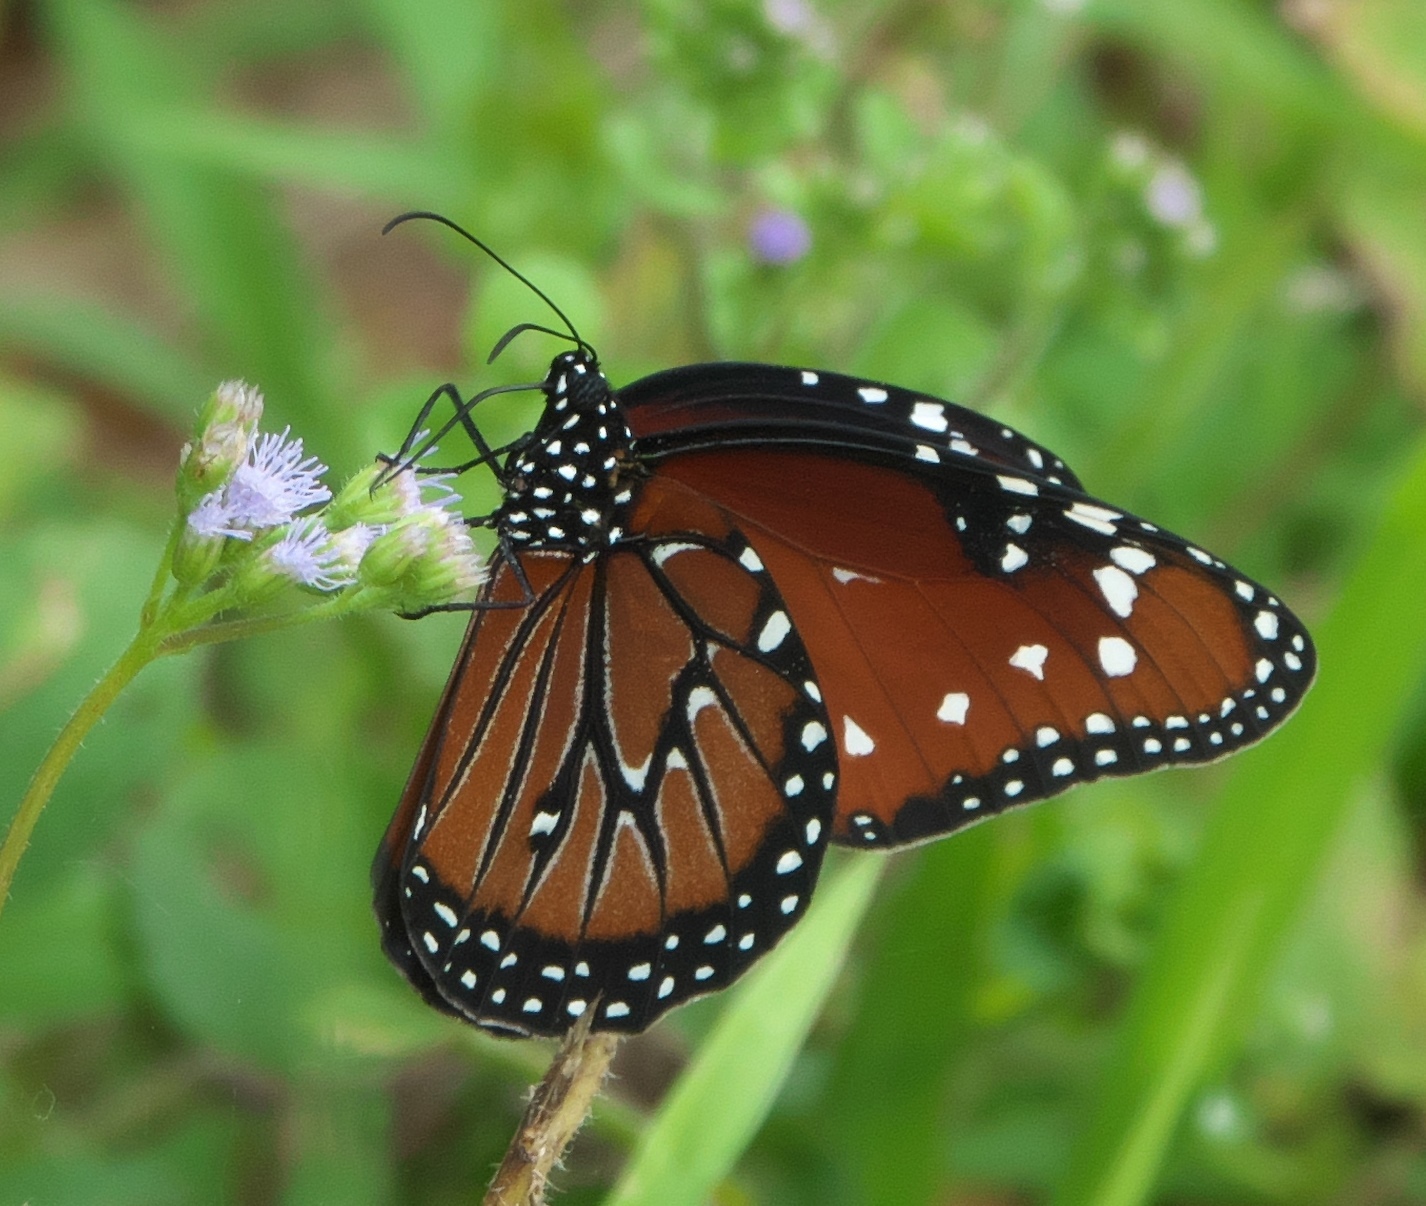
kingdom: Animalia
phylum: Arthropoda
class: Insecta
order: Lepidoptera
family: Nymphalidae
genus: Danaus
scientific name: Danaus gilippus
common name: Queen
